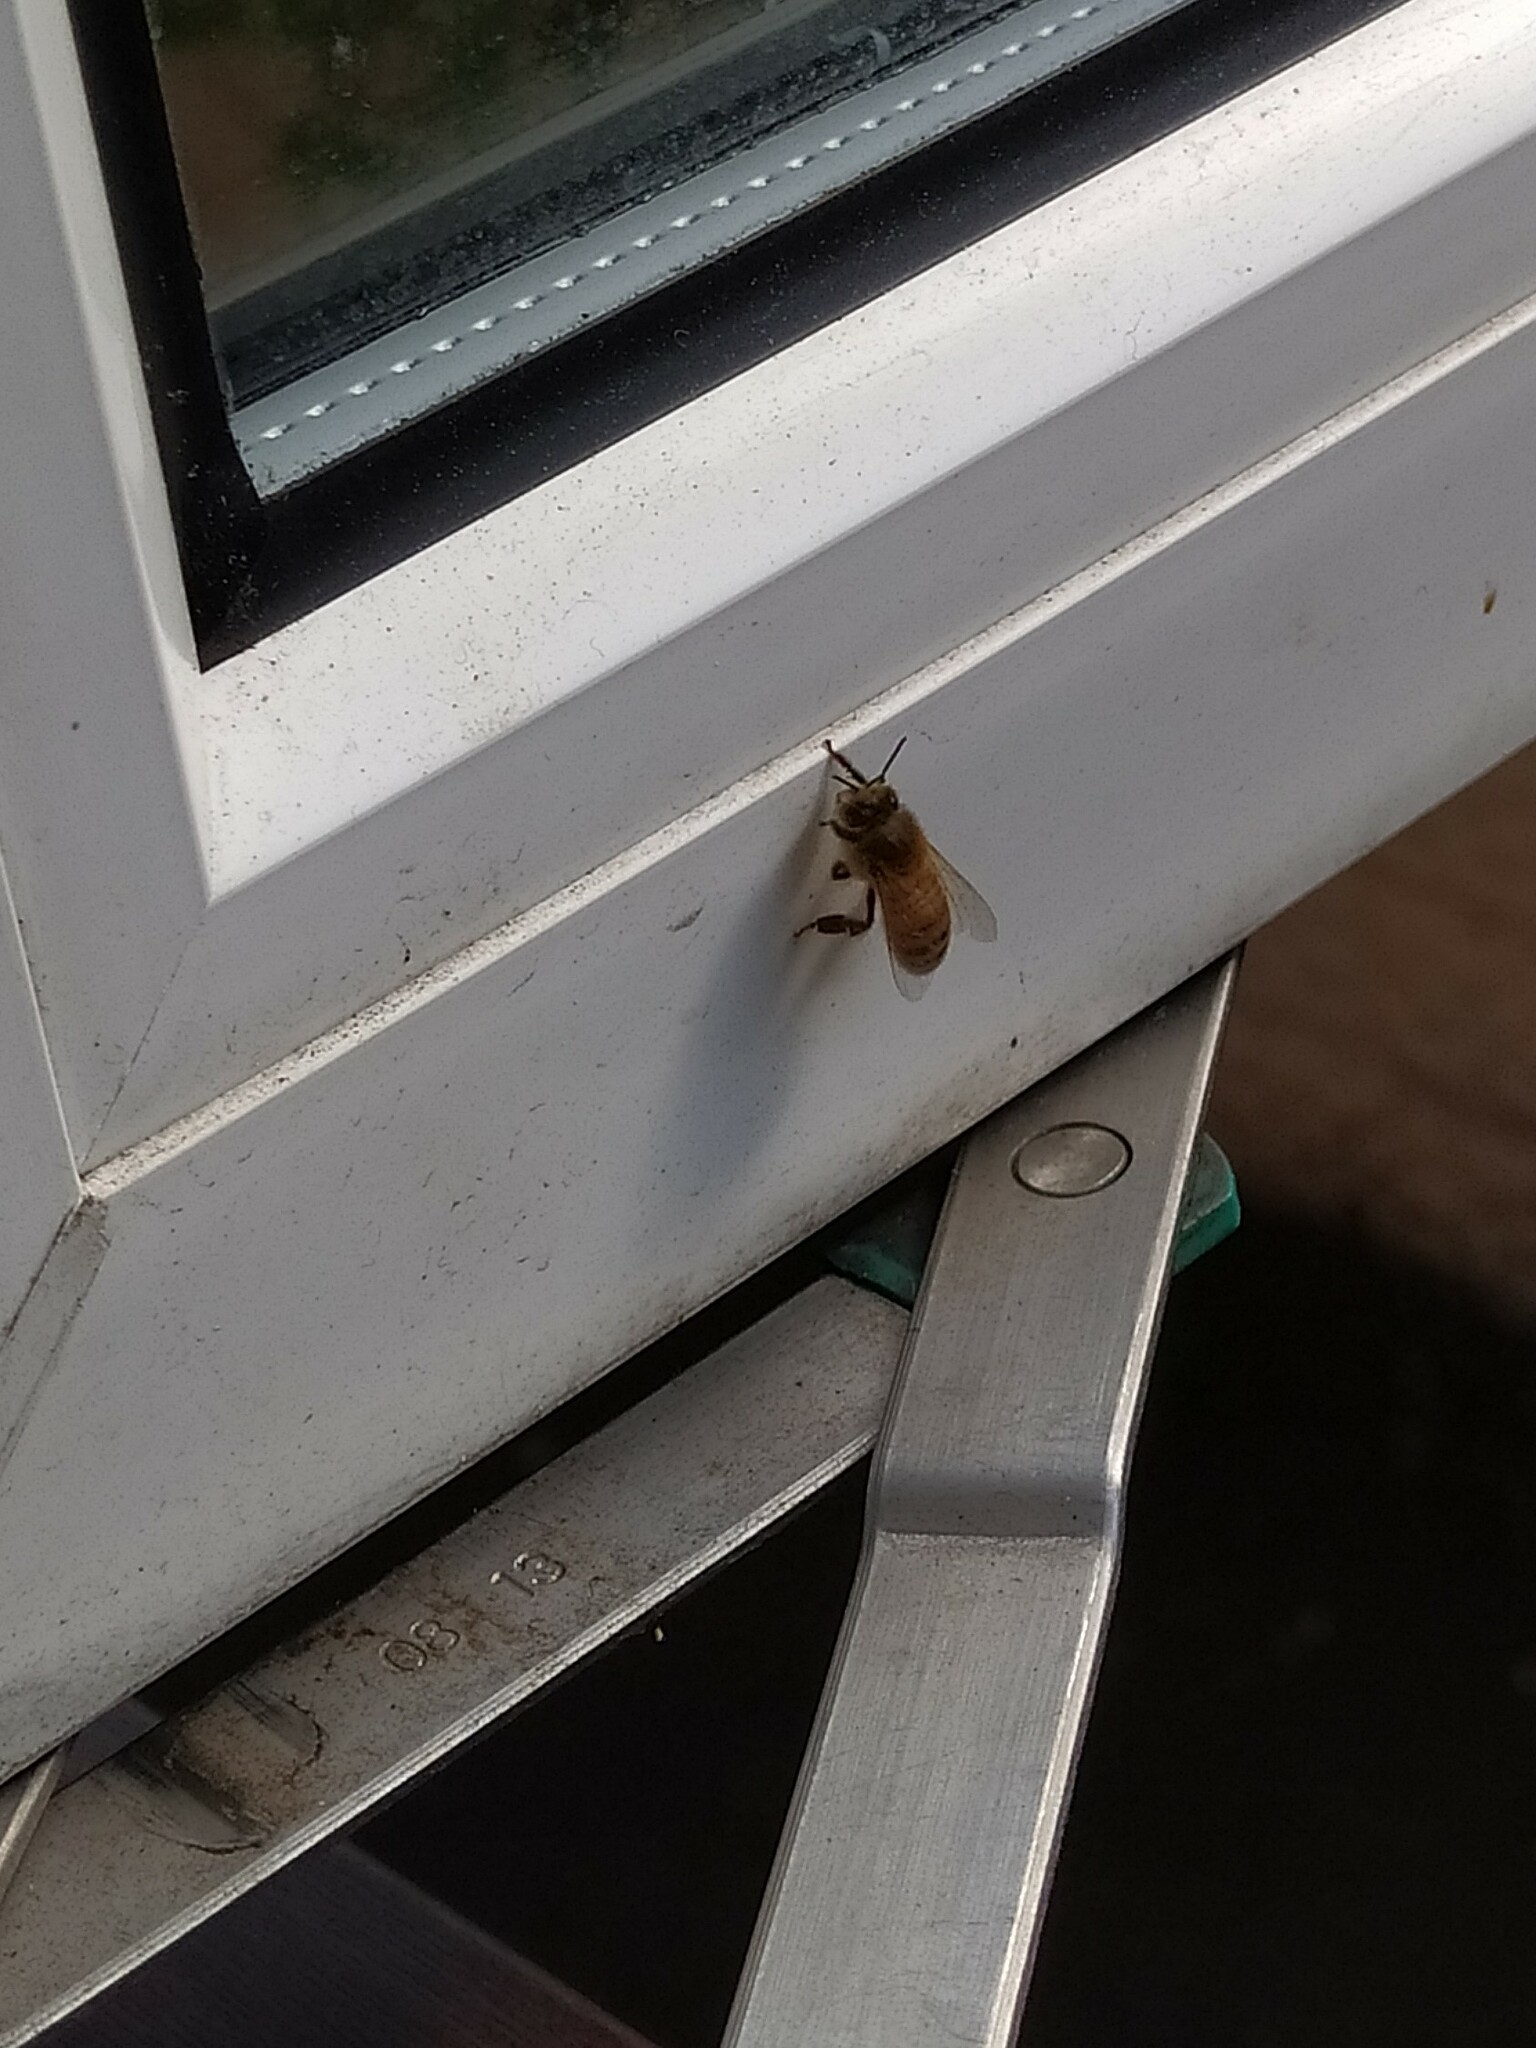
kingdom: Animalia
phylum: Arthropoda
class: Insecta
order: Hymenoptera
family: Apidae
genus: Apis
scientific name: Apis mellifera
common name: Honey bee
